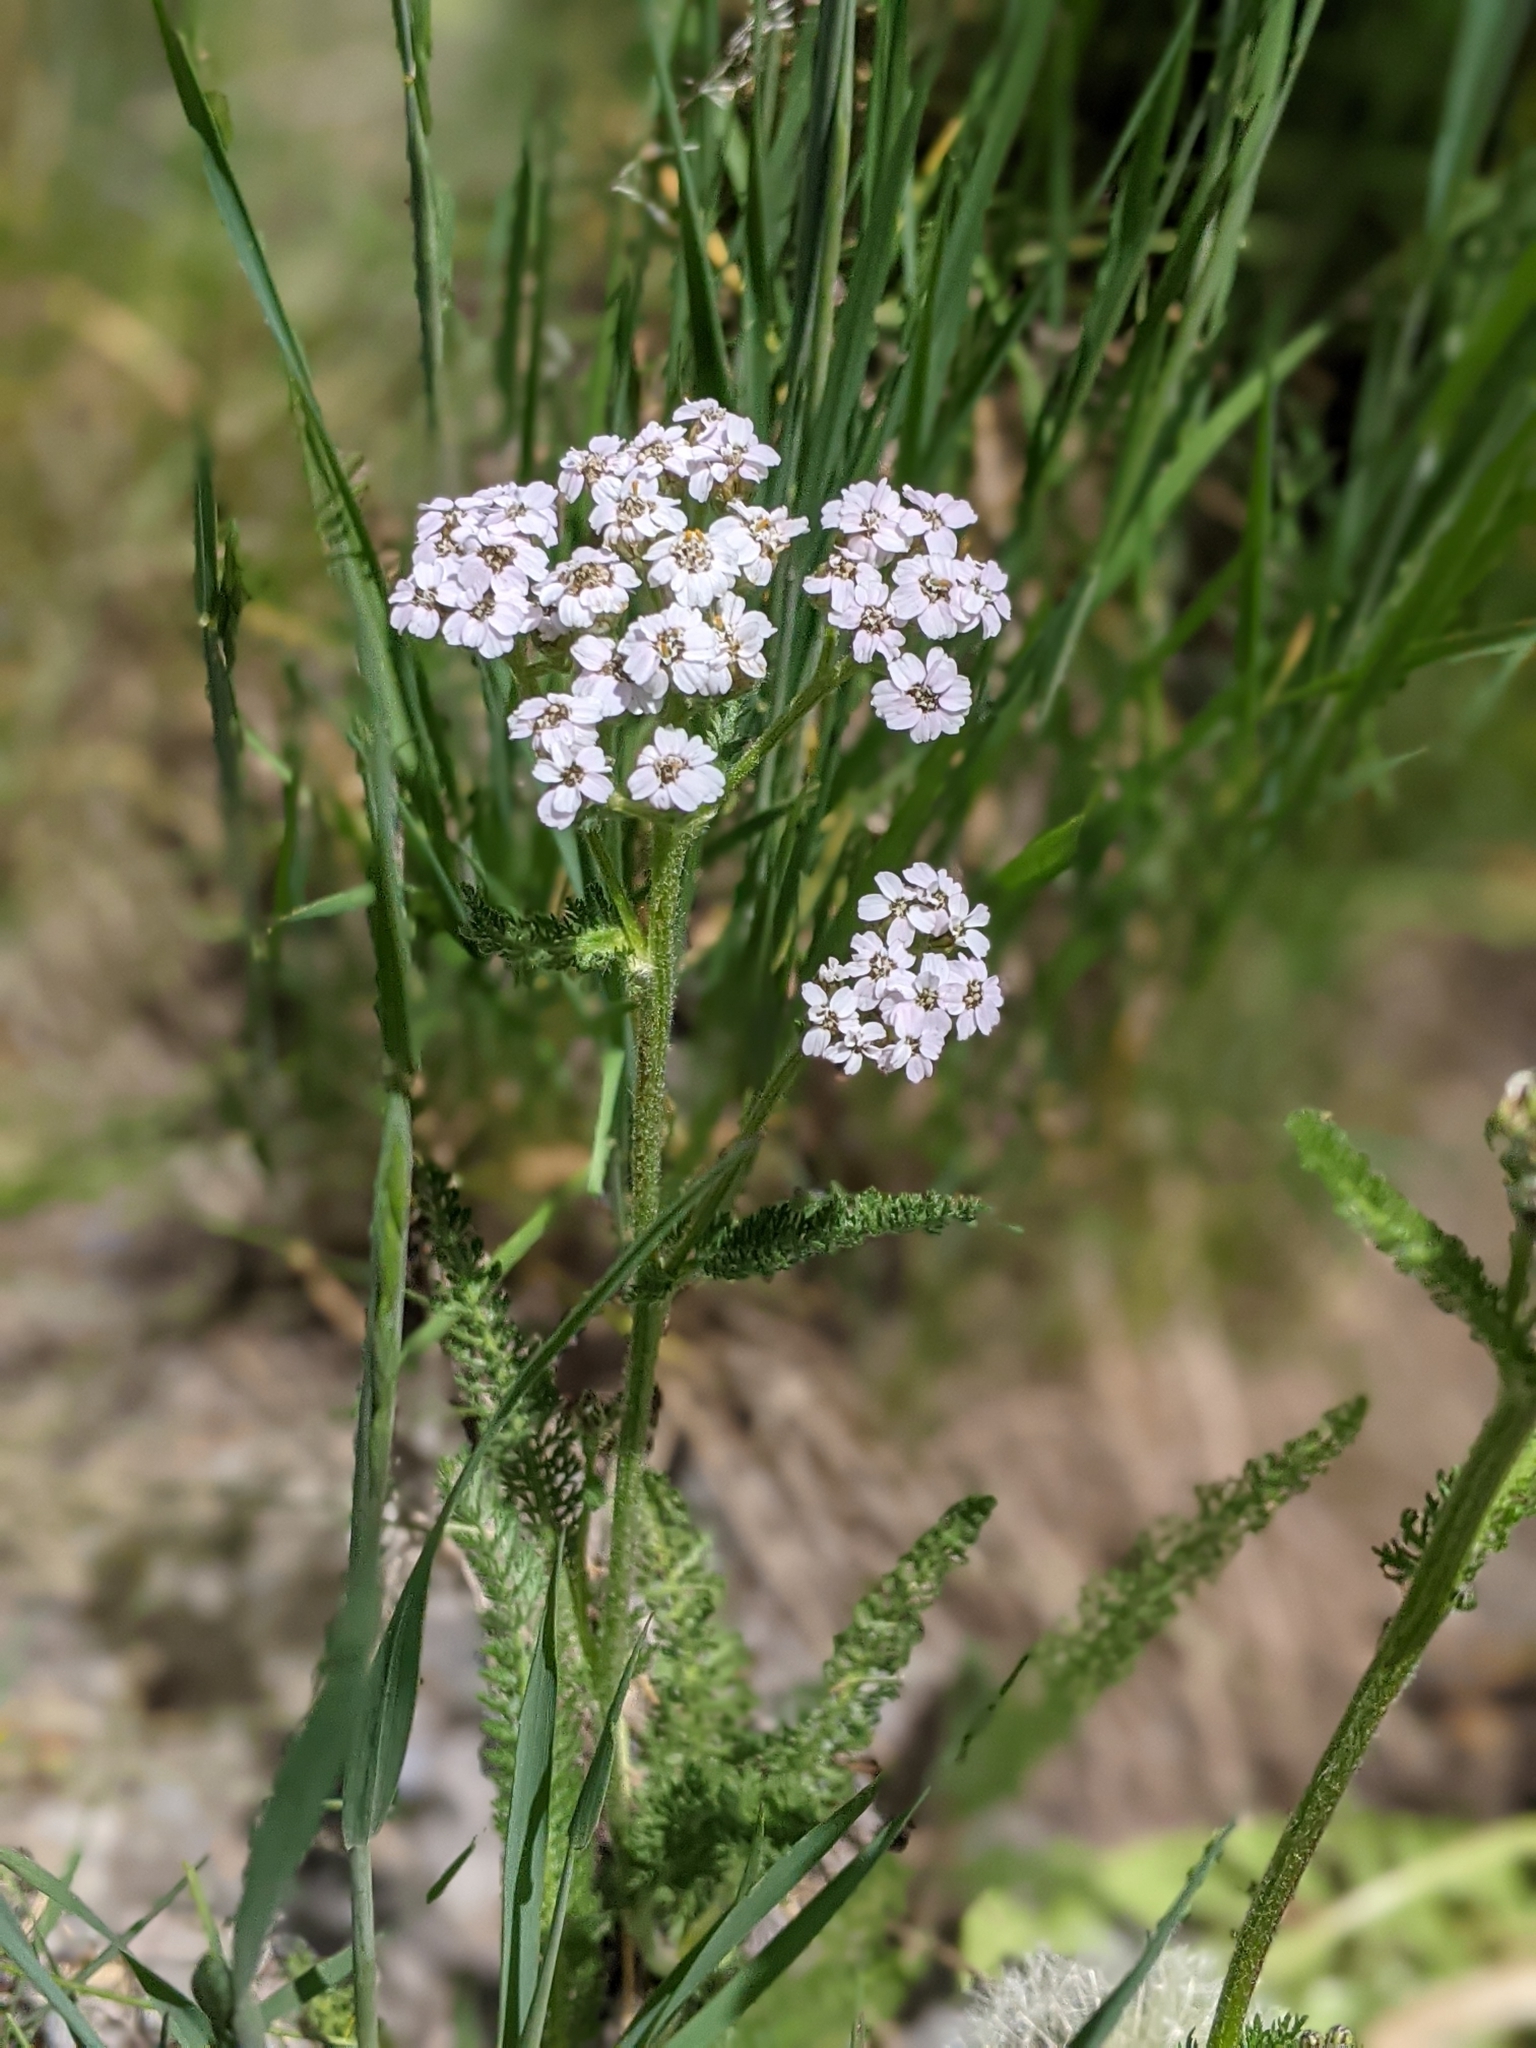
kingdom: Plantae
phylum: Tracheophyta
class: Magnoliopsida
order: Asterales
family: Asteraceae
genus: Achillea
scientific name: Achillea millefolium
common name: Yarrow
